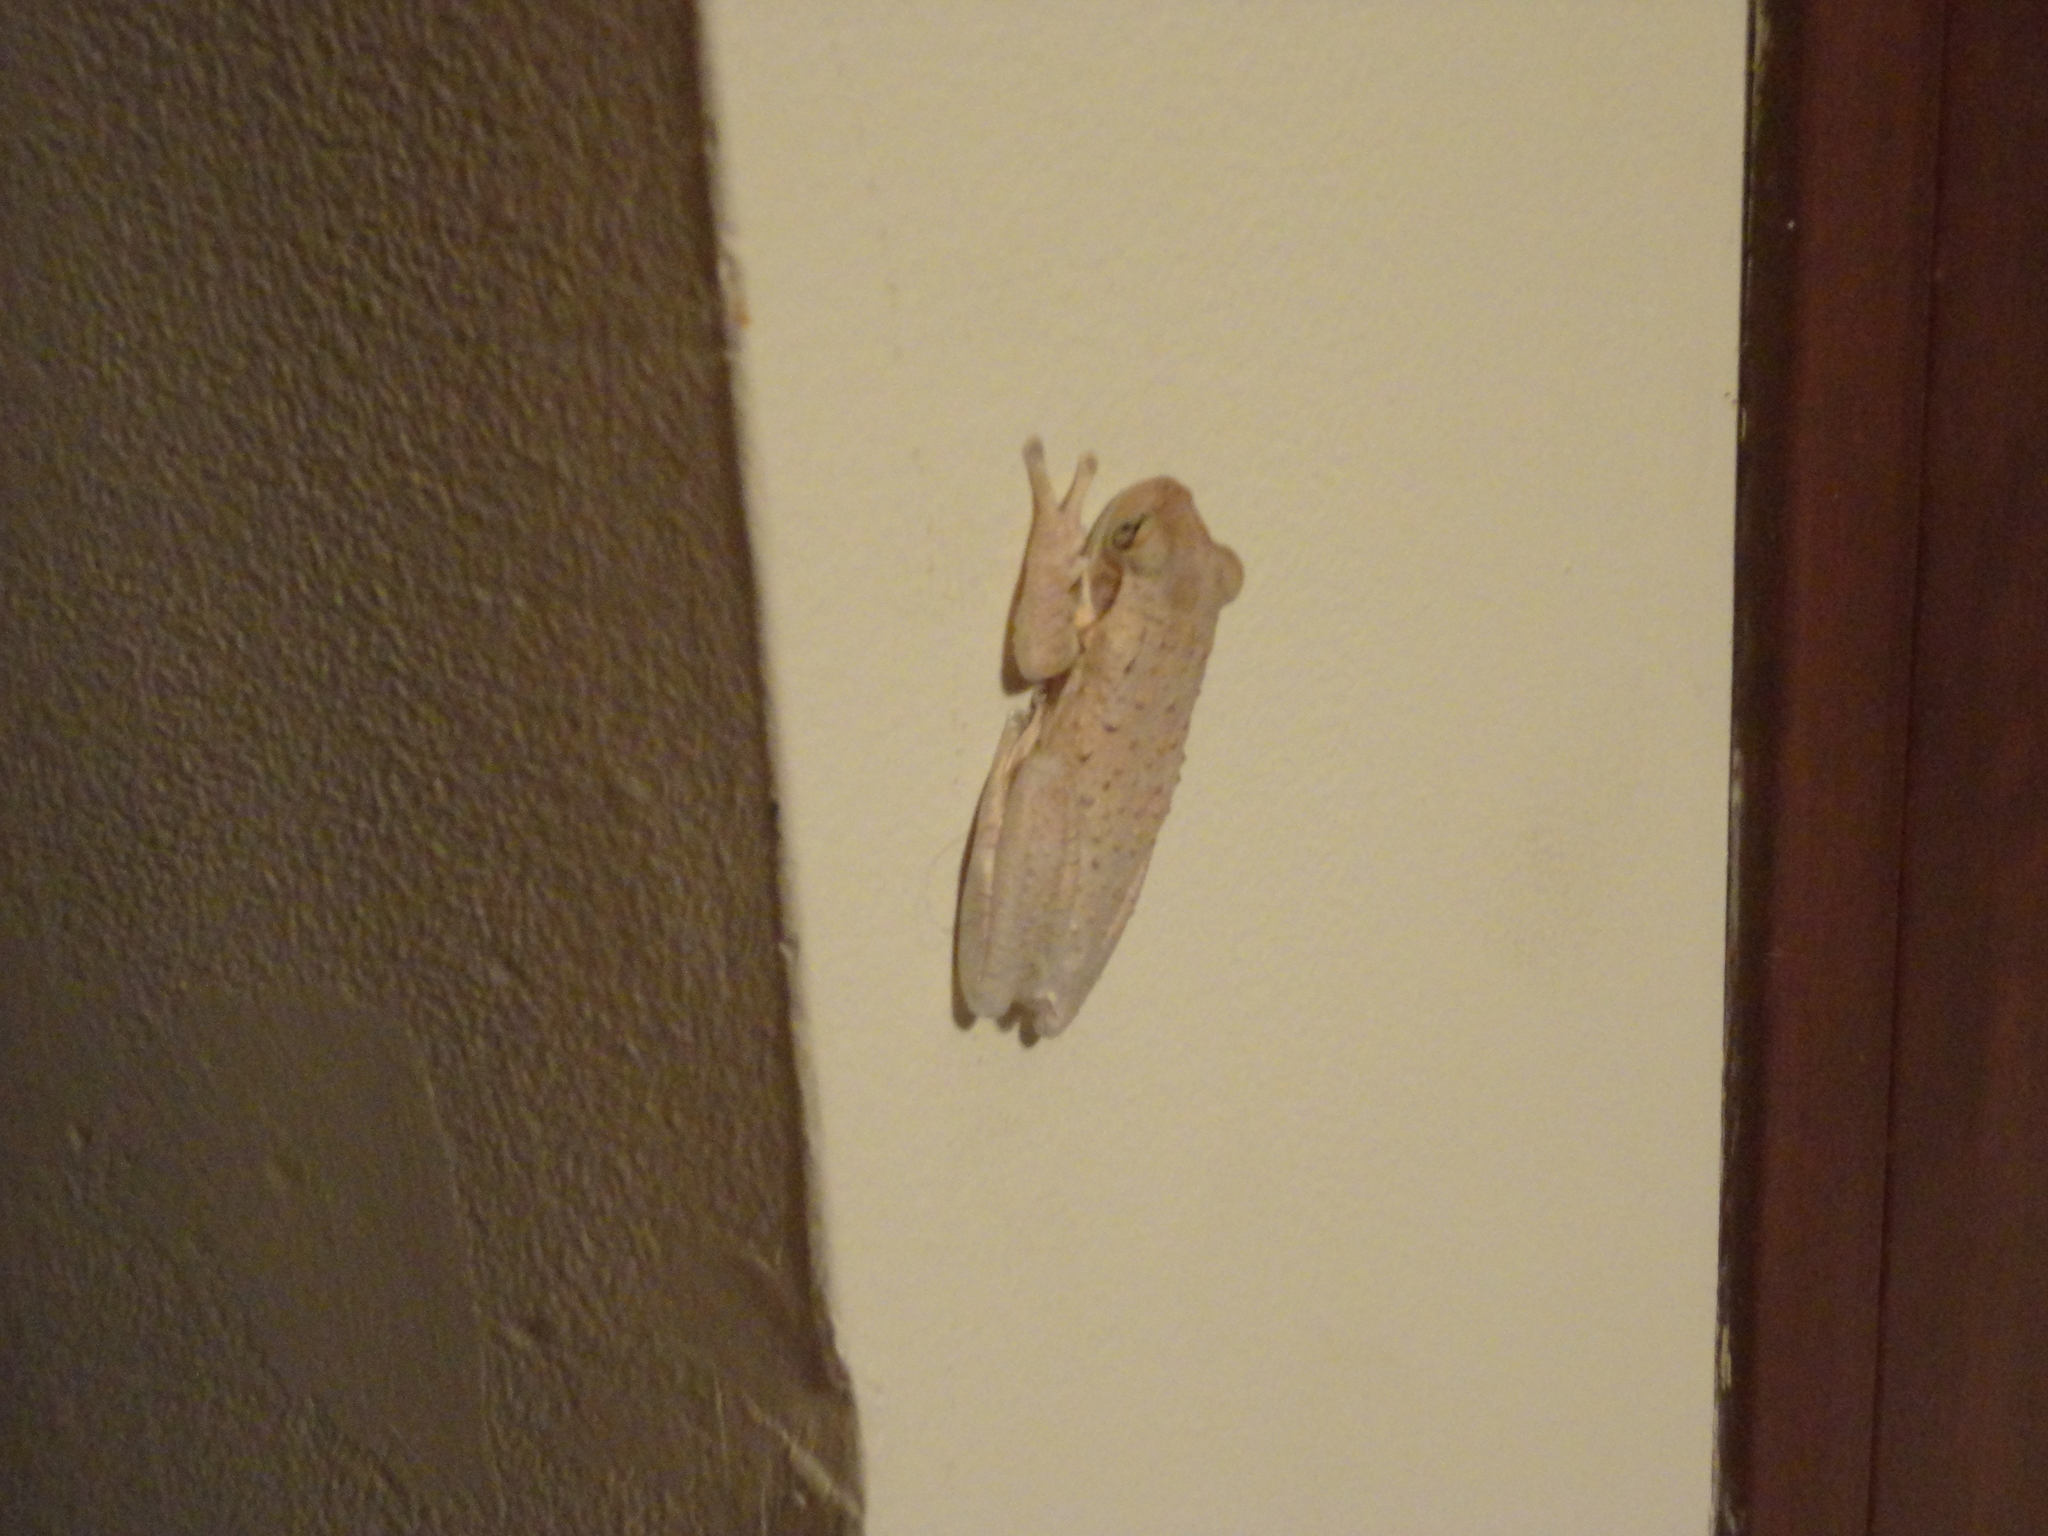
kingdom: Animalia
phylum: Chordata
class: Amphibia
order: Anura
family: Hylidae
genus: Osteopilus
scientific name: Osteopilus septentrionalis
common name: Cuban treefrog
